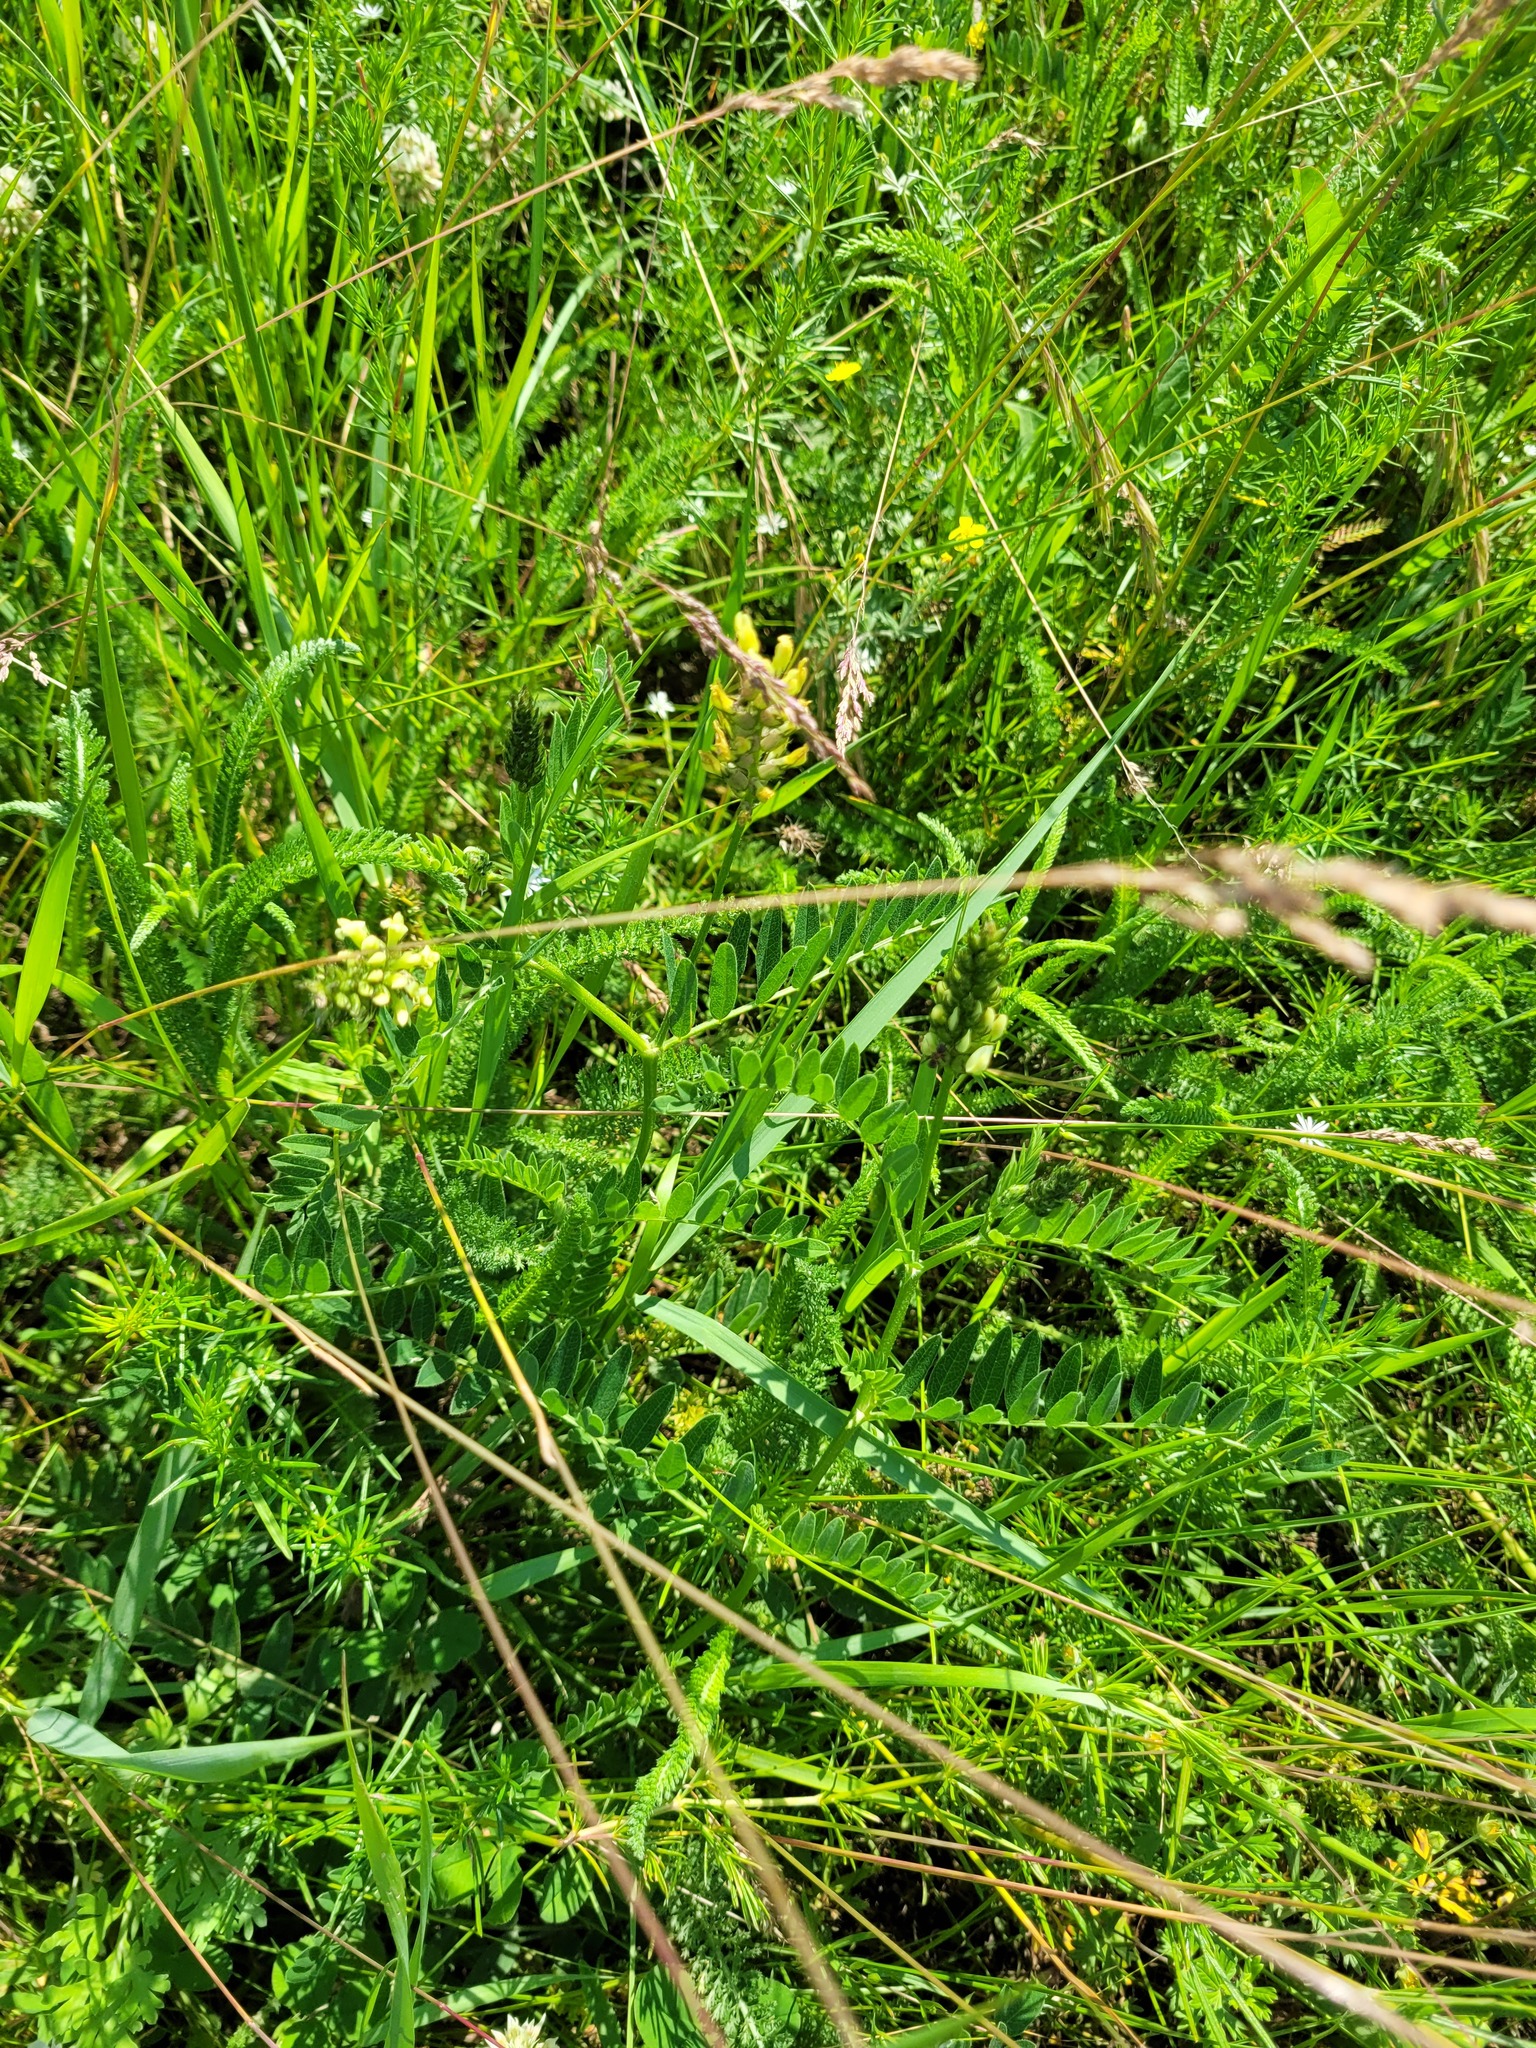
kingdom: Plantae
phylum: Tracheophyta
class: Magnoliopsida
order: Fabales
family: Fabaceae
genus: Astragalus
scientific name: Astragalus cicer
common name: Chick-pea milk-vetch
